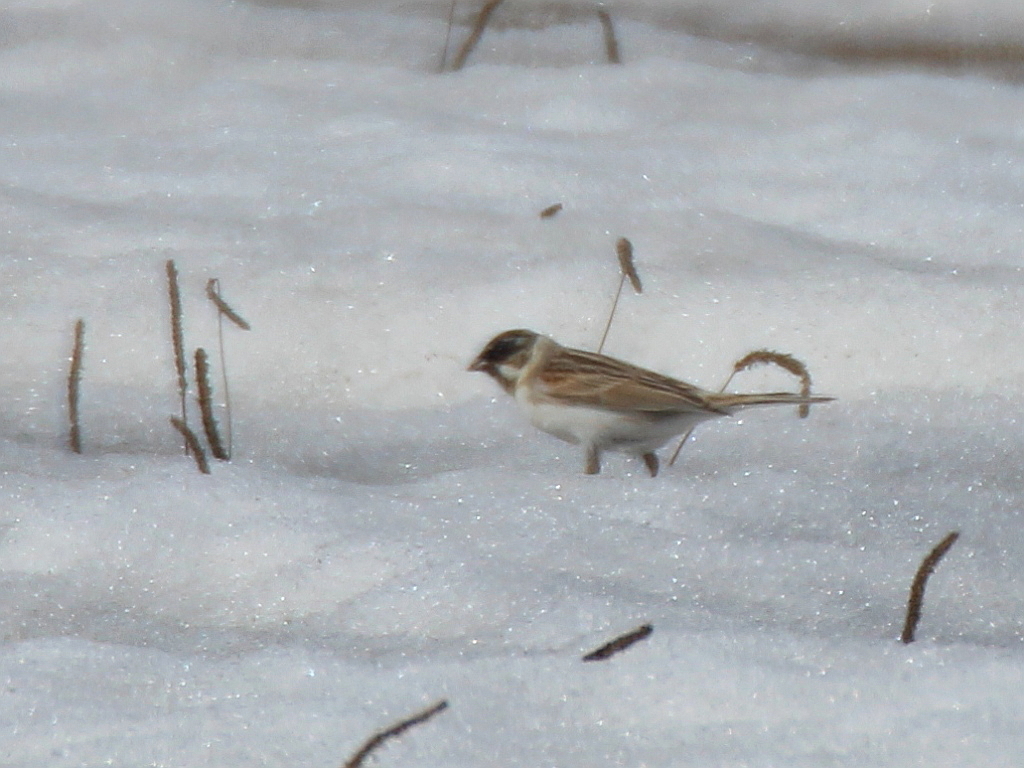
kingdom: Animalia
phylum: Chordata
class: Aves
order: Passeriformes
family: Emberizidae
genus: Emberiza
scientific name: Emberiza schoeniclus
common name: Reed bunting
